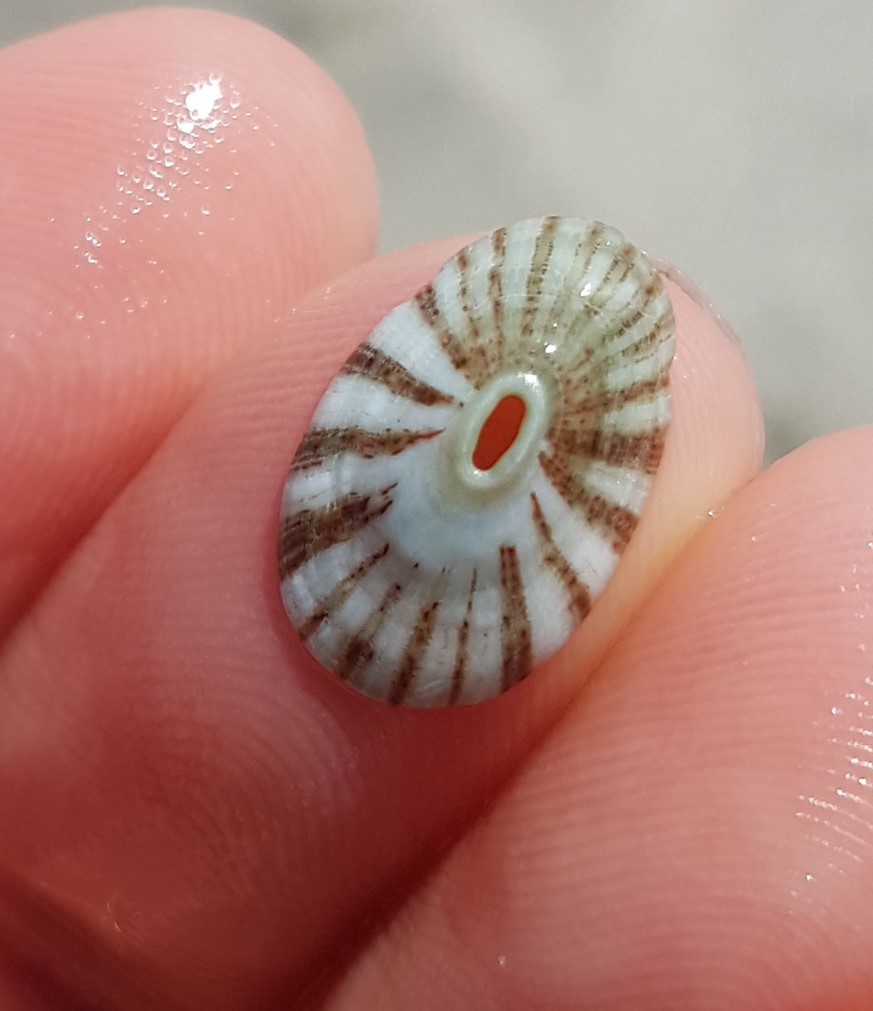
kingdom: Animalia
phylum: Mollusca
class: Gastropoda
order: Lepetellida
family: Fissurellidae
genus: Fissurella
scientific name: Fissurella virescens
